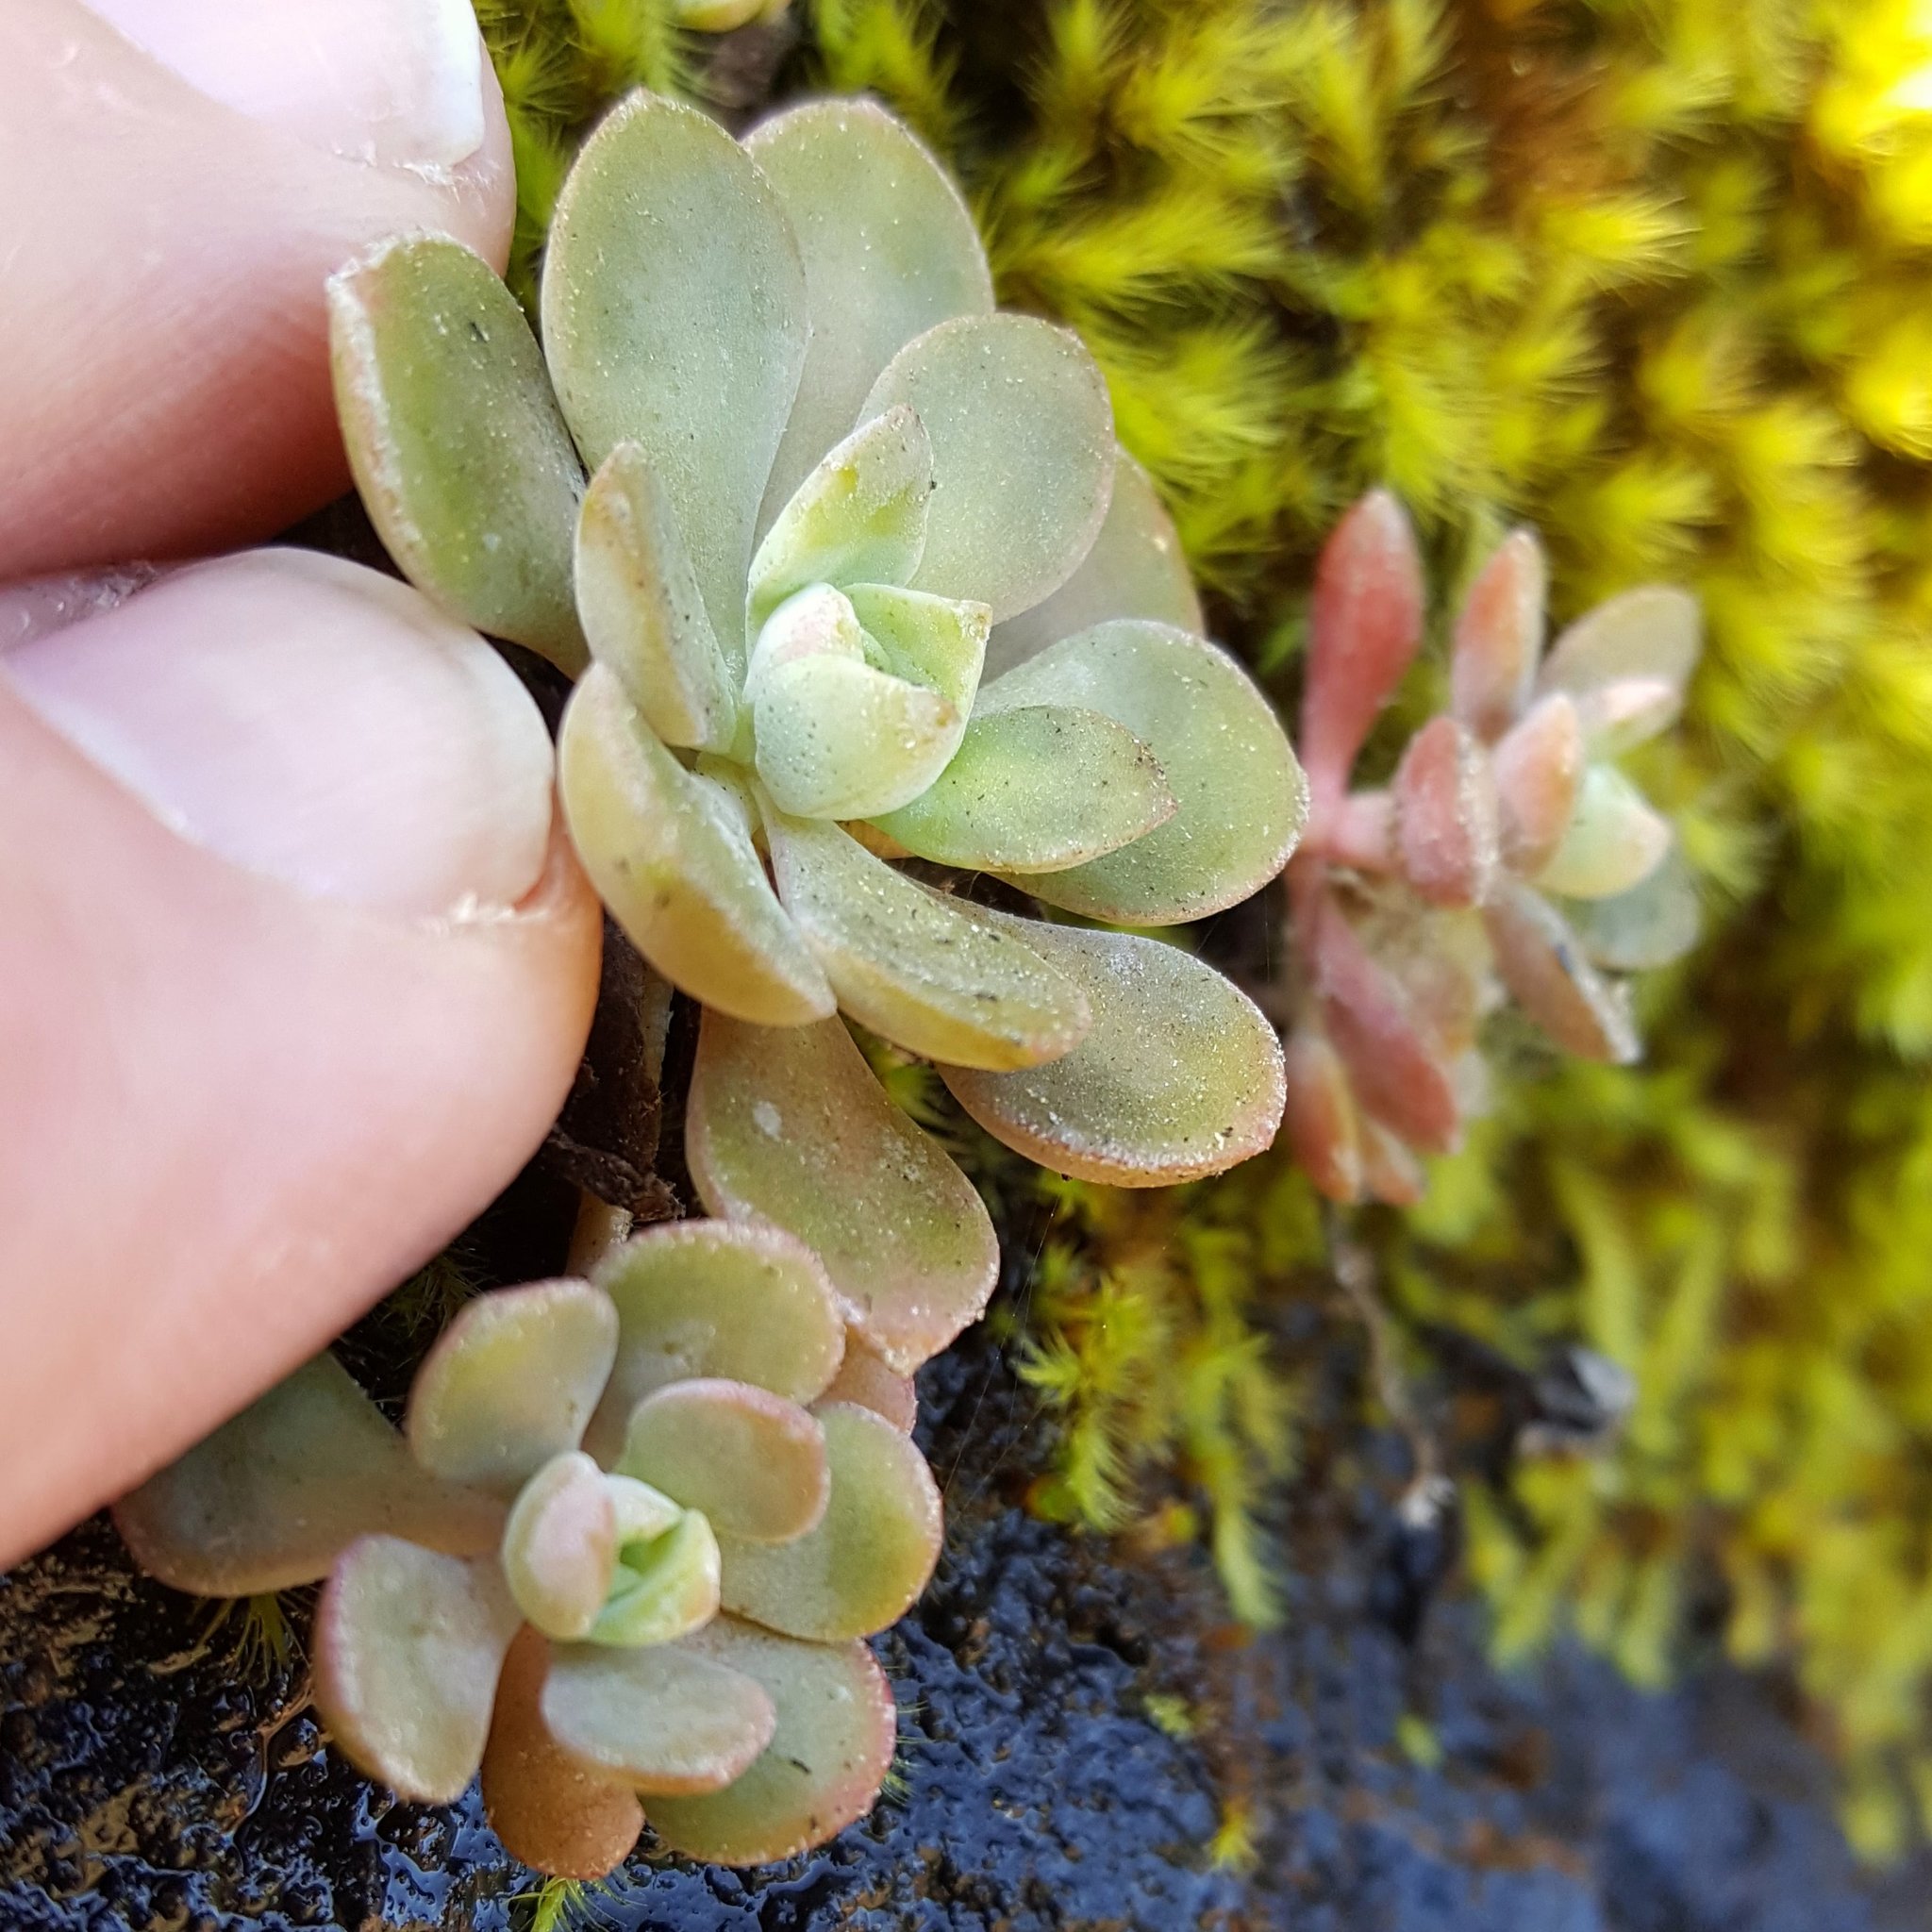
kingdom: Plantae
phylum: Tracheophyta
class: Magnoliopsida
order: Saxifragales
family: Crassulaceae
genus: Sedum
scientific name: Sedum spathulifolium
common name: Colorado stonecrop
